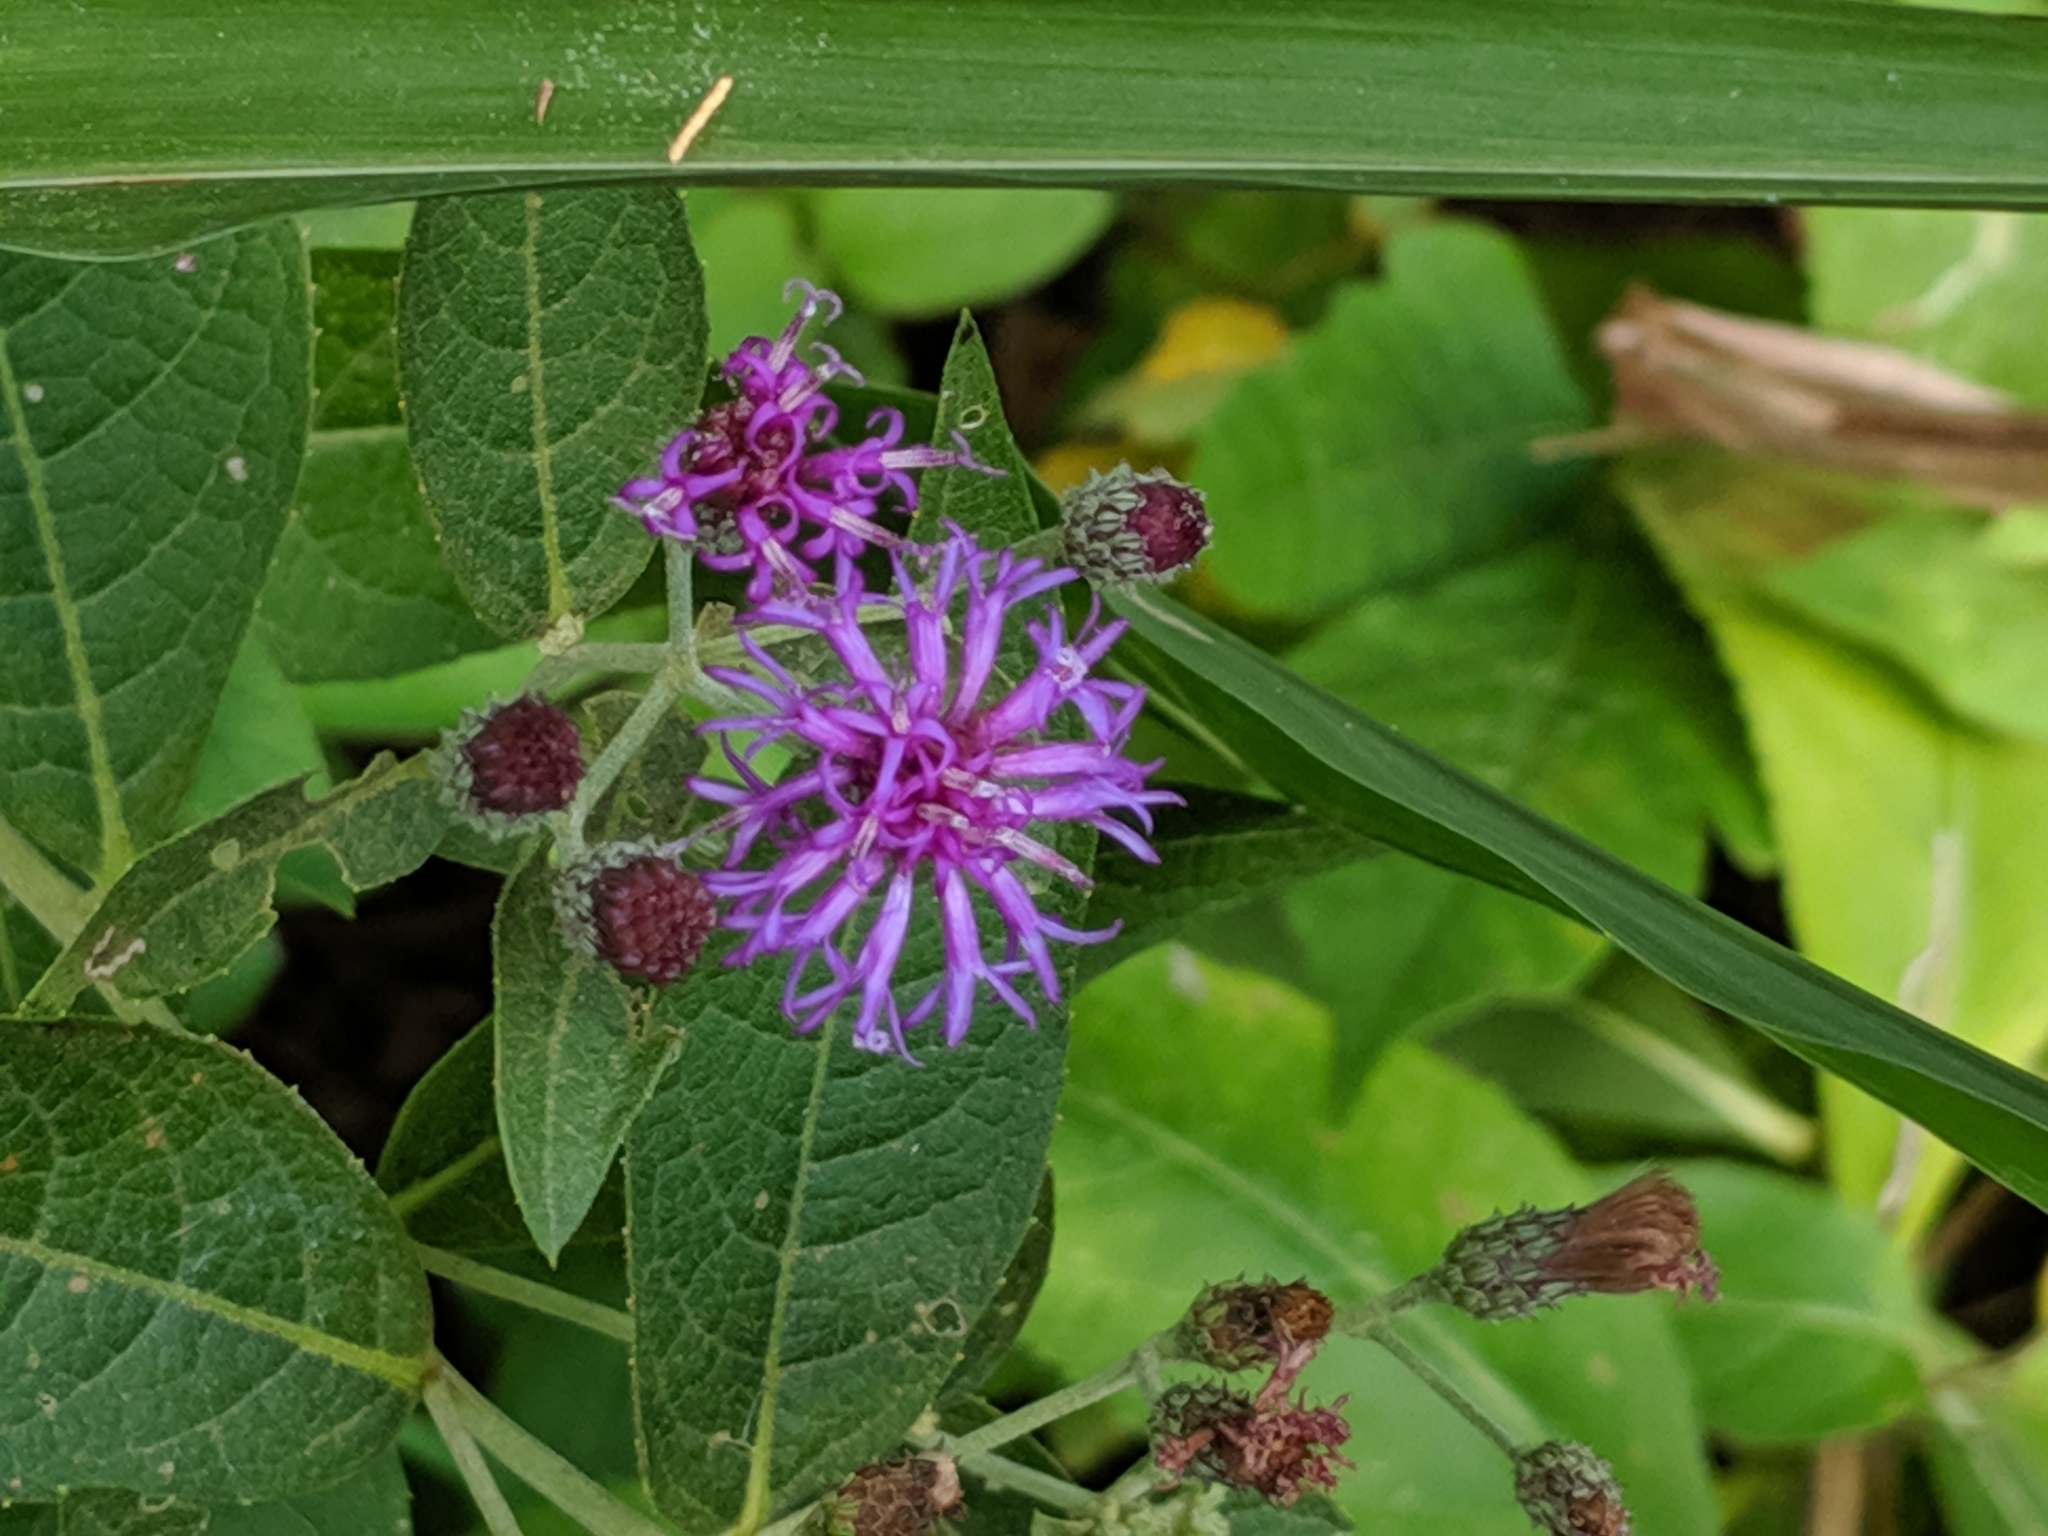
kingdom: Plantae
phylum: Tracheophyta
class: Magnoliopsida
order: Asterales
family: Asteraceae
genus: Vernonia
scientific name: Vernonia baldwinii
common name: Western ironweed
